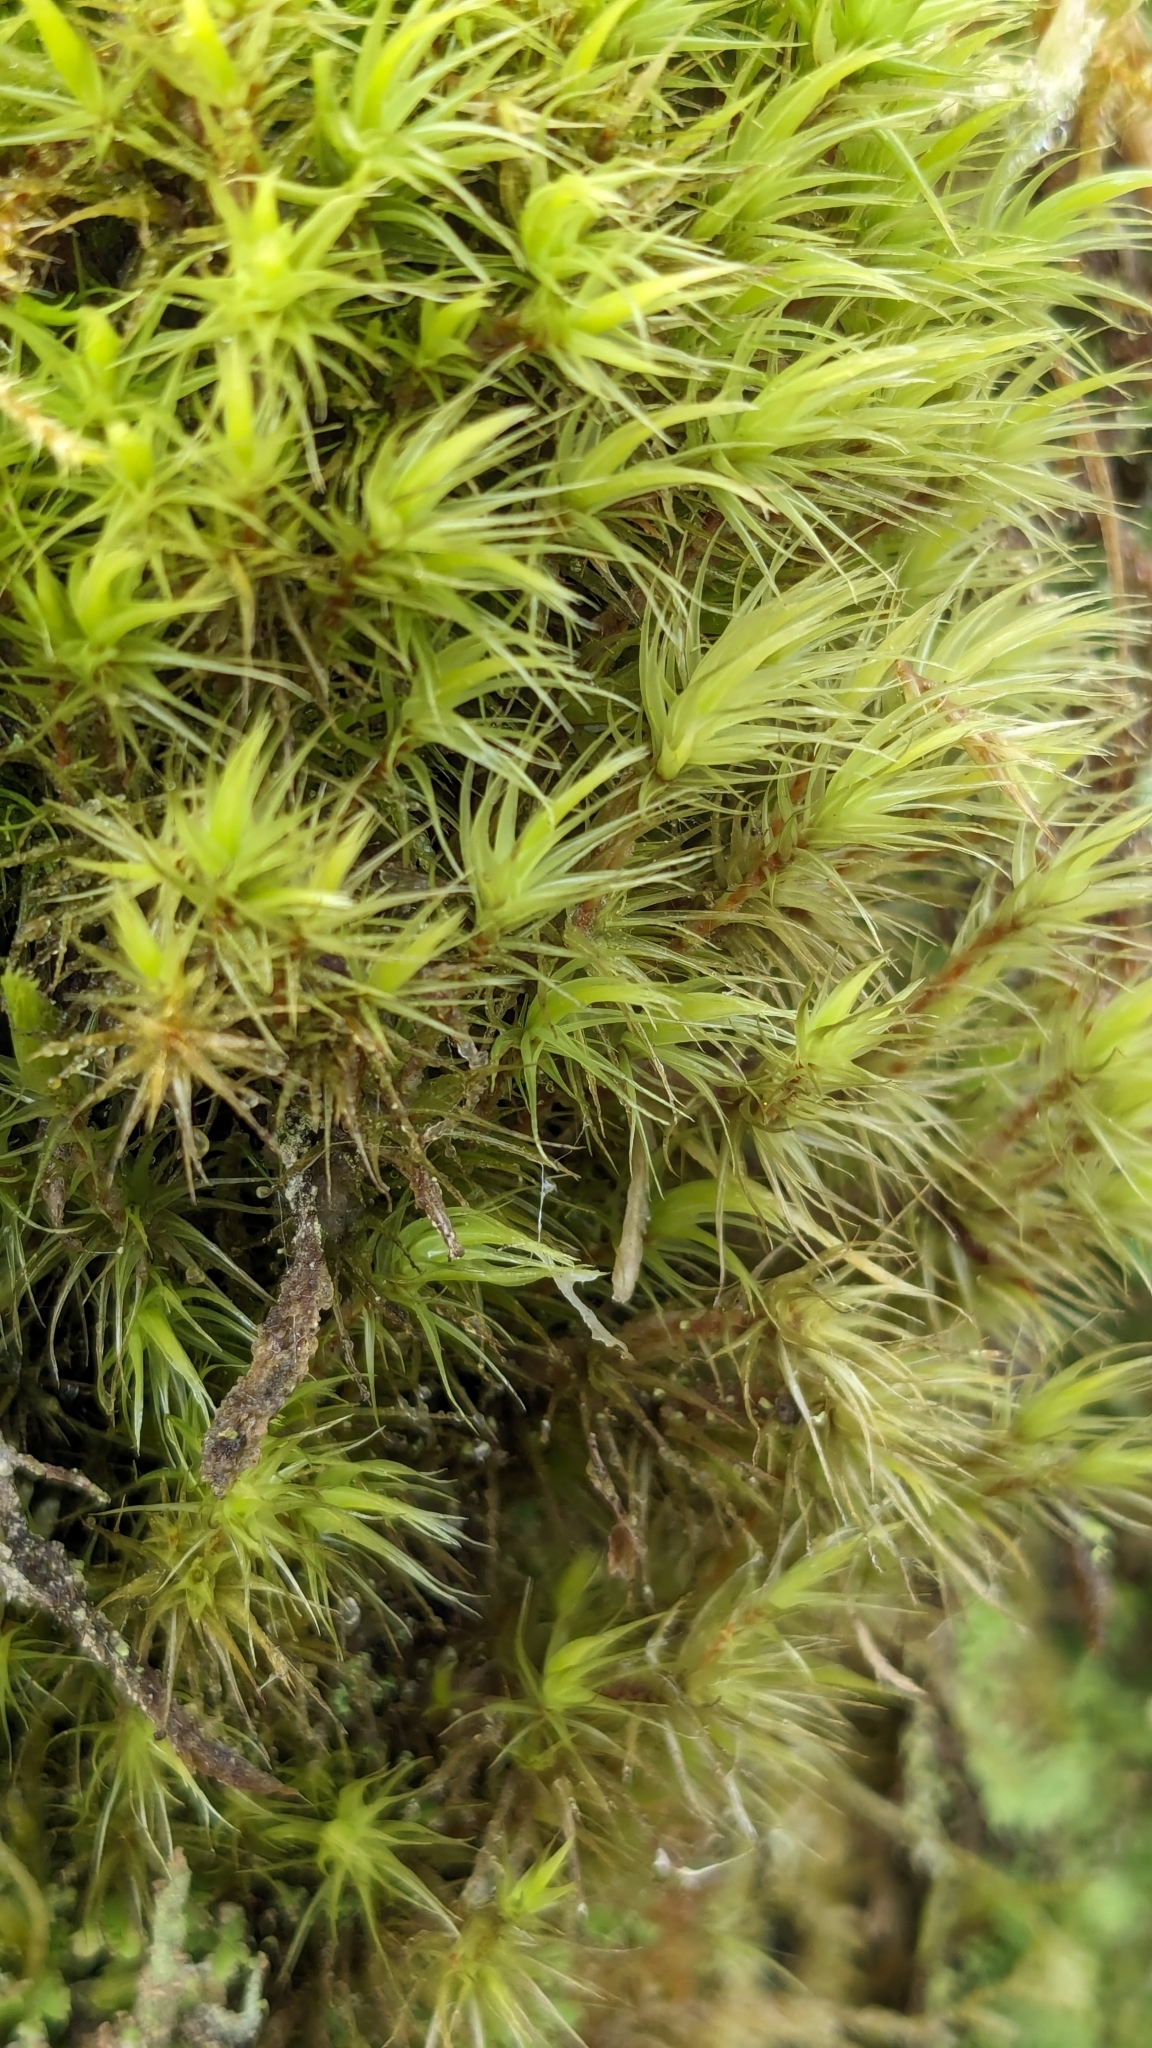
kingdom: Plantae
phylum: Bryophyta
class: Bryopsida
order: Dicranales
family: Dicranaceae
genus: Dicranum
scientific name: Dicranum scoparium
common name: Broom fork-moss
